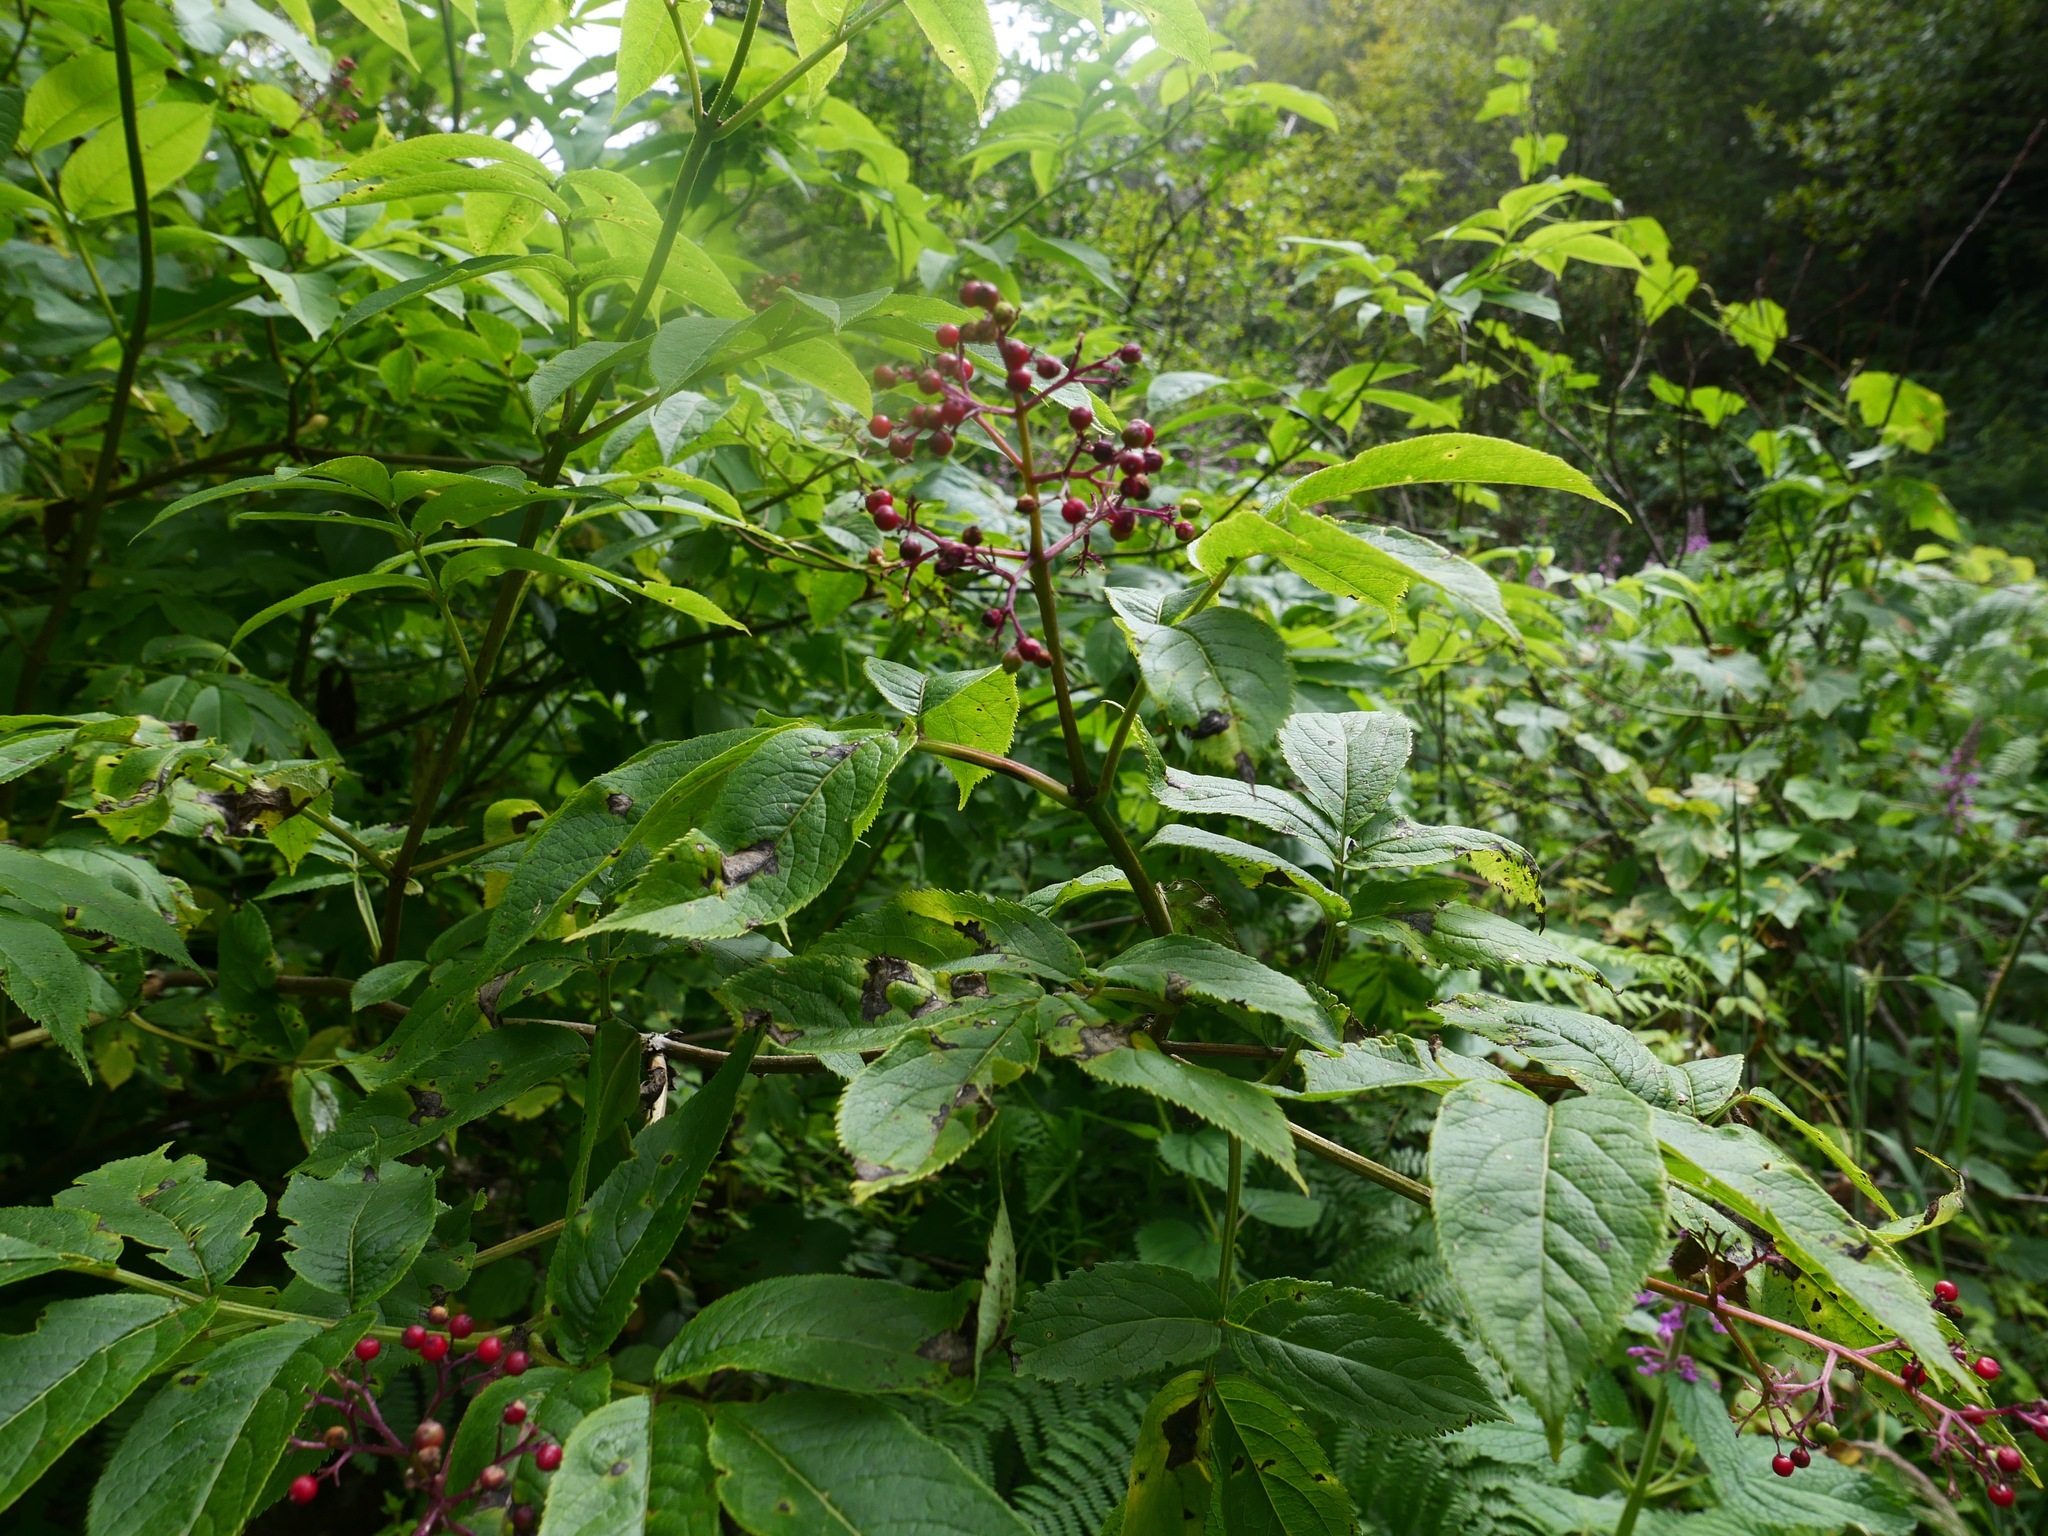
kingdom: Plantae
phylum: Tracheophyta
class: Magnoliopsida
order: Dipsacales
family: Viburnaceae
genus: Sambucus
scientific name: Sambucus racemosa
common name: Red-berried elder
